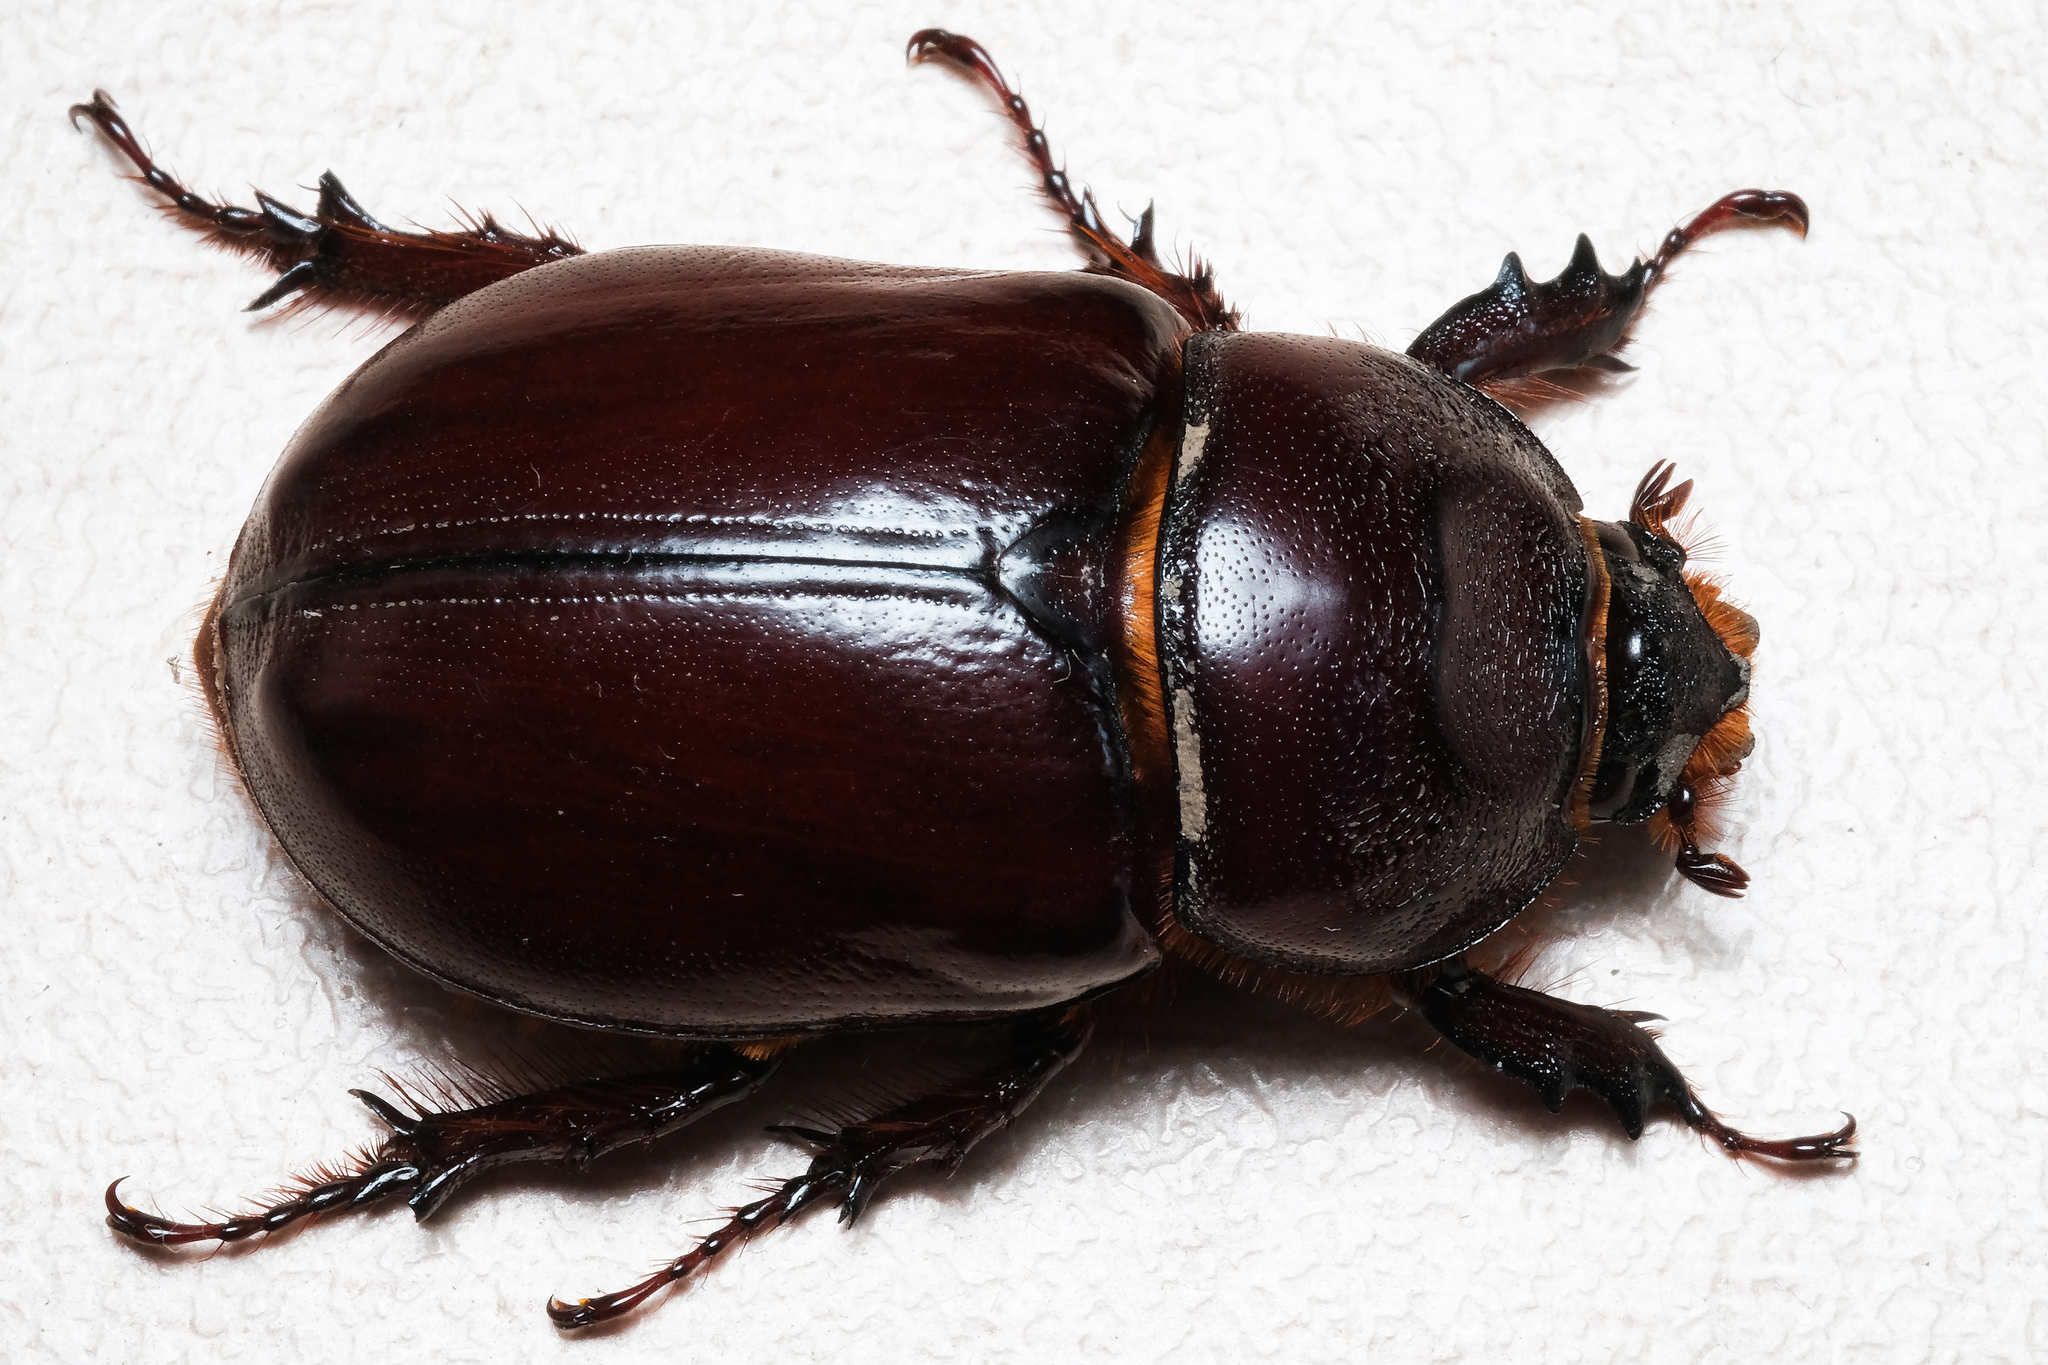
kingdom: Animalia
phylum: Arthropoda
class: Insecta
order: Coleoptera
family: Scarabaeidae
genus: Oryctes
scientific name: Oryctes nasicornis
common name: European rhinoceros beetle
